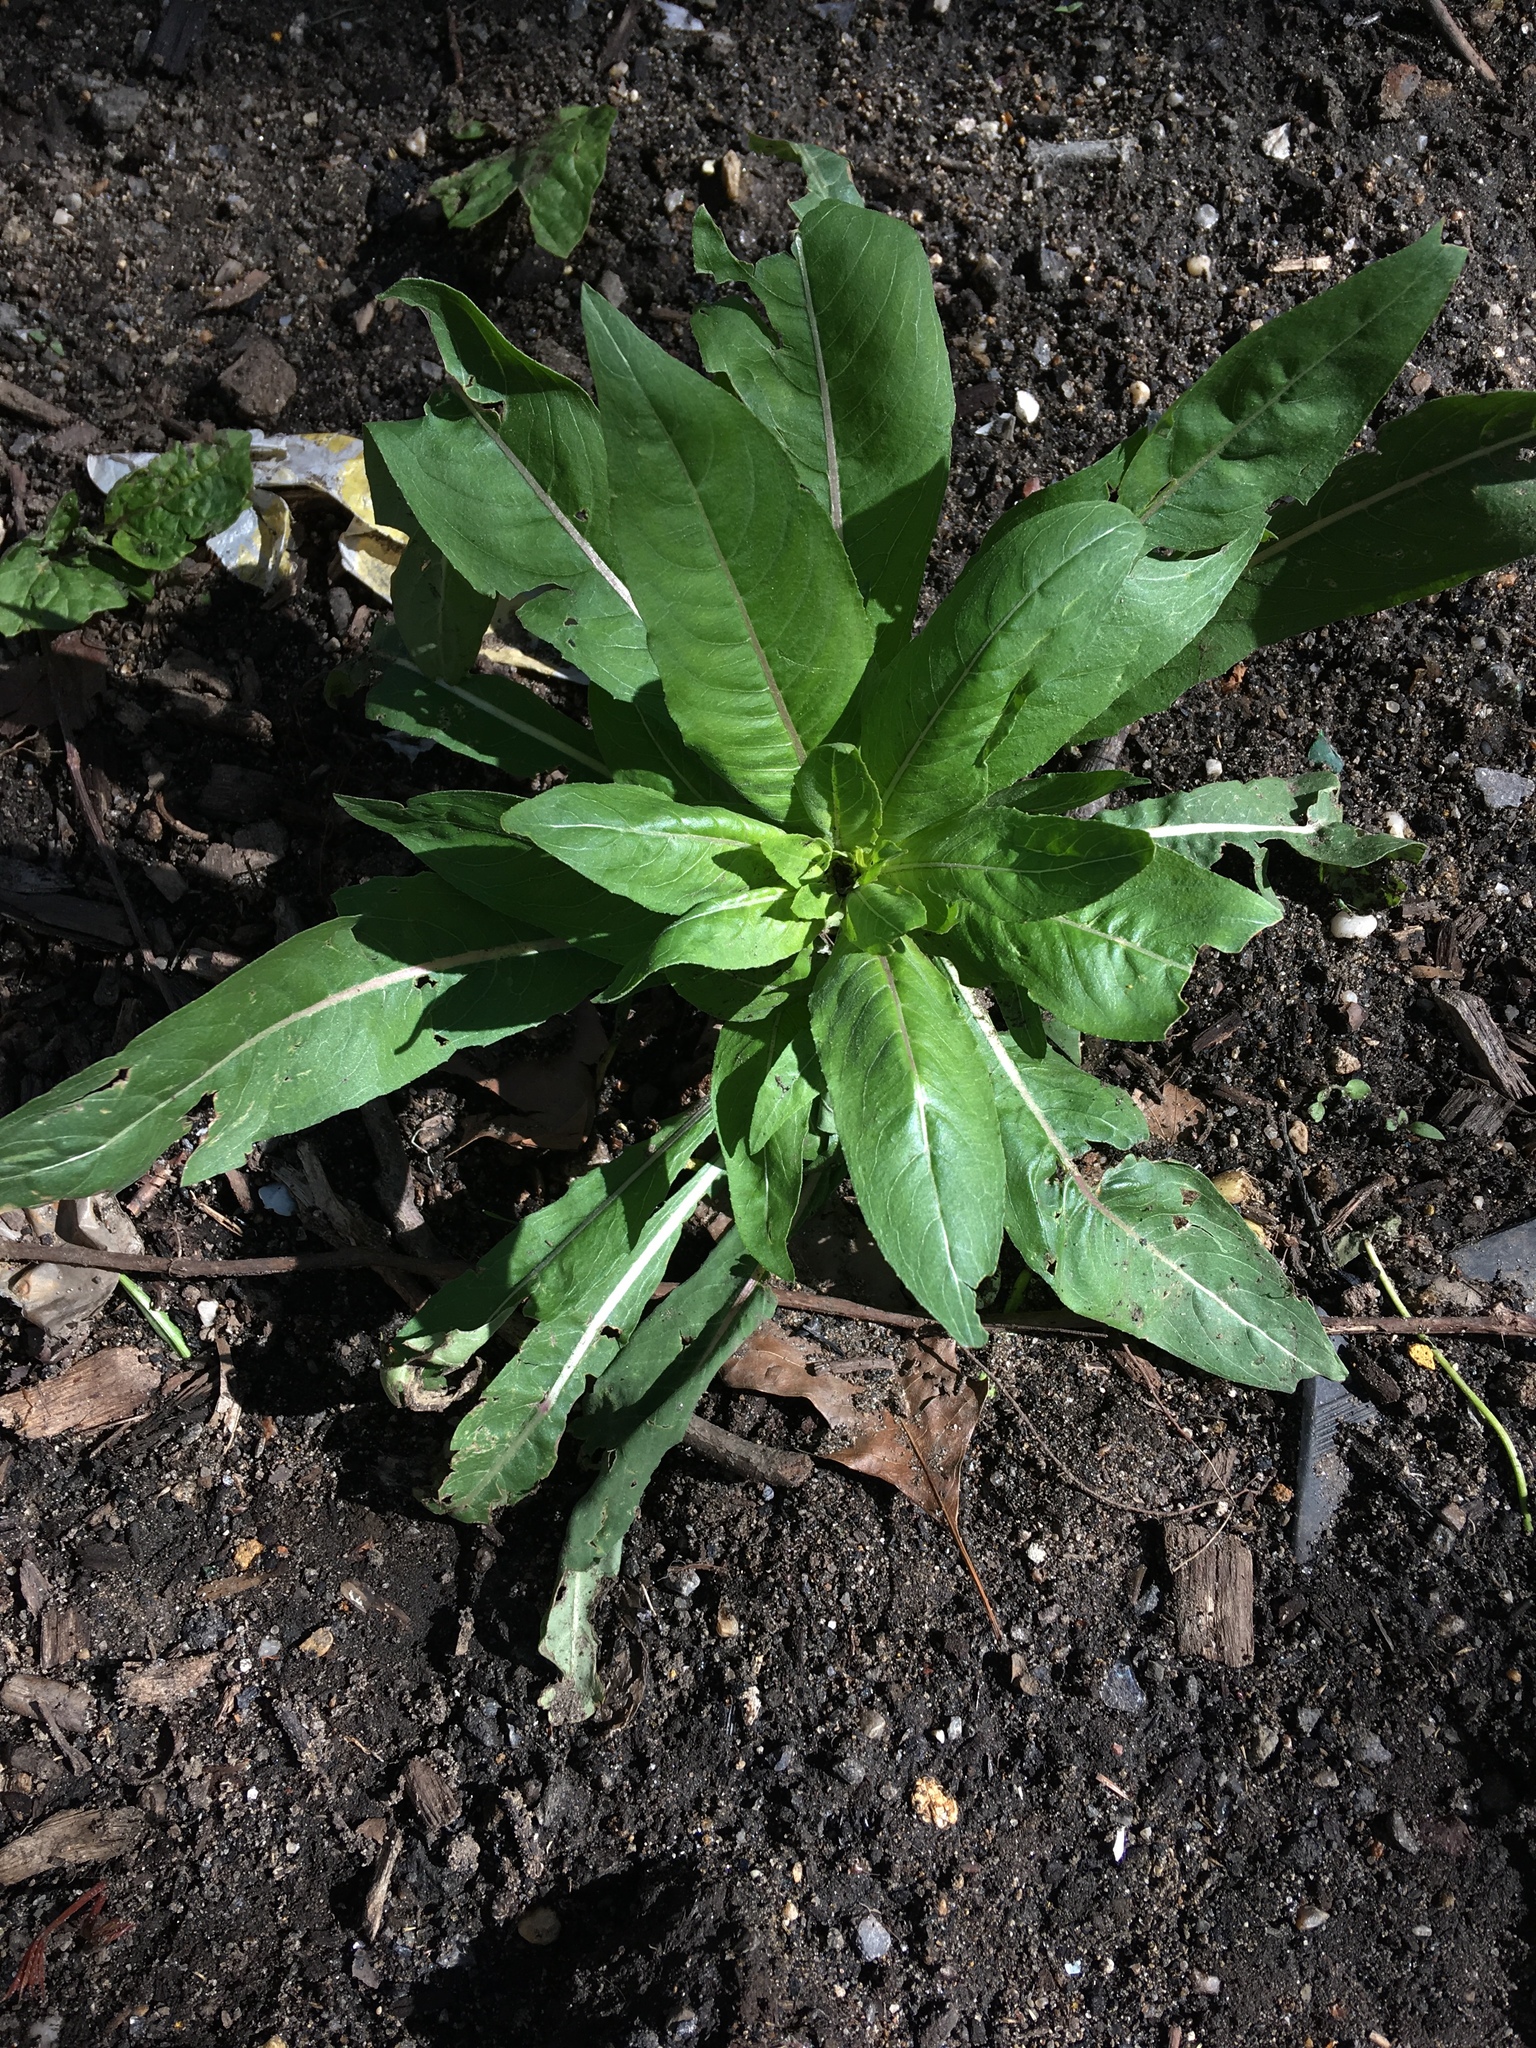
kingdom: Plantae
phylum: Tracheophyta
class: Magnoliopsida
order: Myrtales
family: Onagraceae
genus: Oenothera
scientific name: Oenothera biennis
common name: Common evening-primrose
